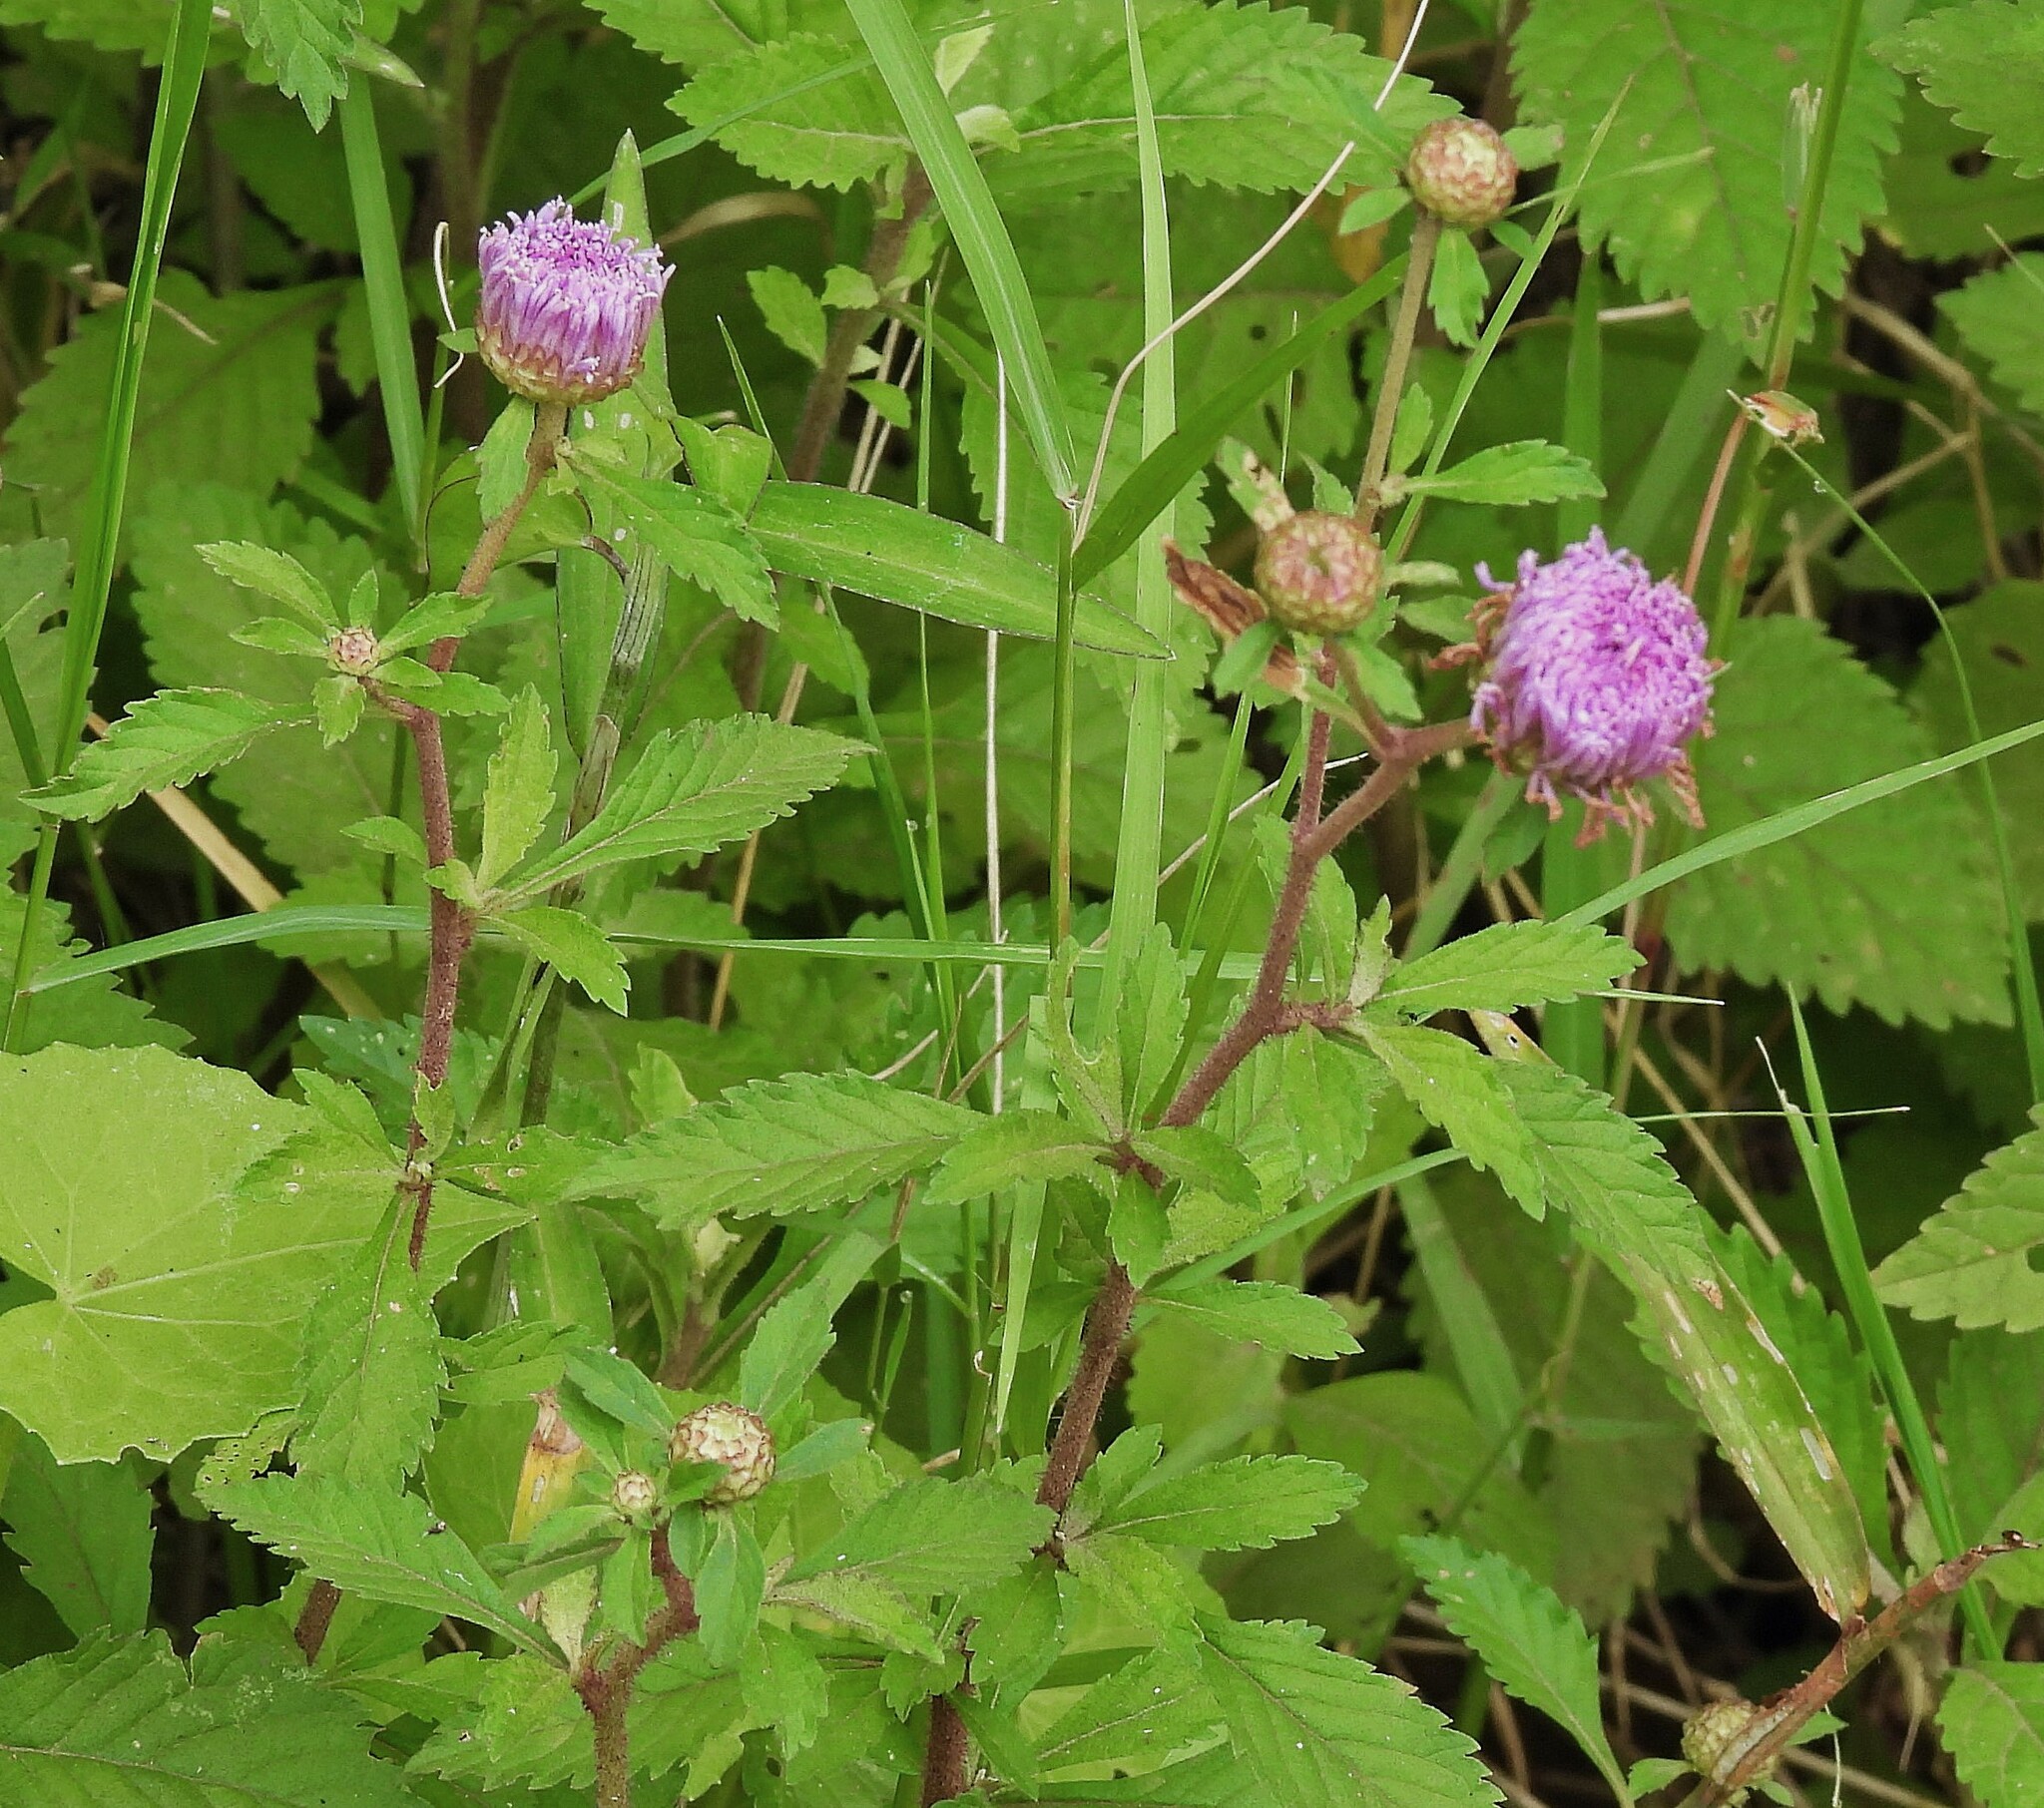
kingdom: Plantae
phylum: Tracheophyta
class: Magnoliopsida
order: Asterales
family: Asteraceae
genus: Centratherum
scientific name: Centratherum punctatum
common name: Larkdaisy
